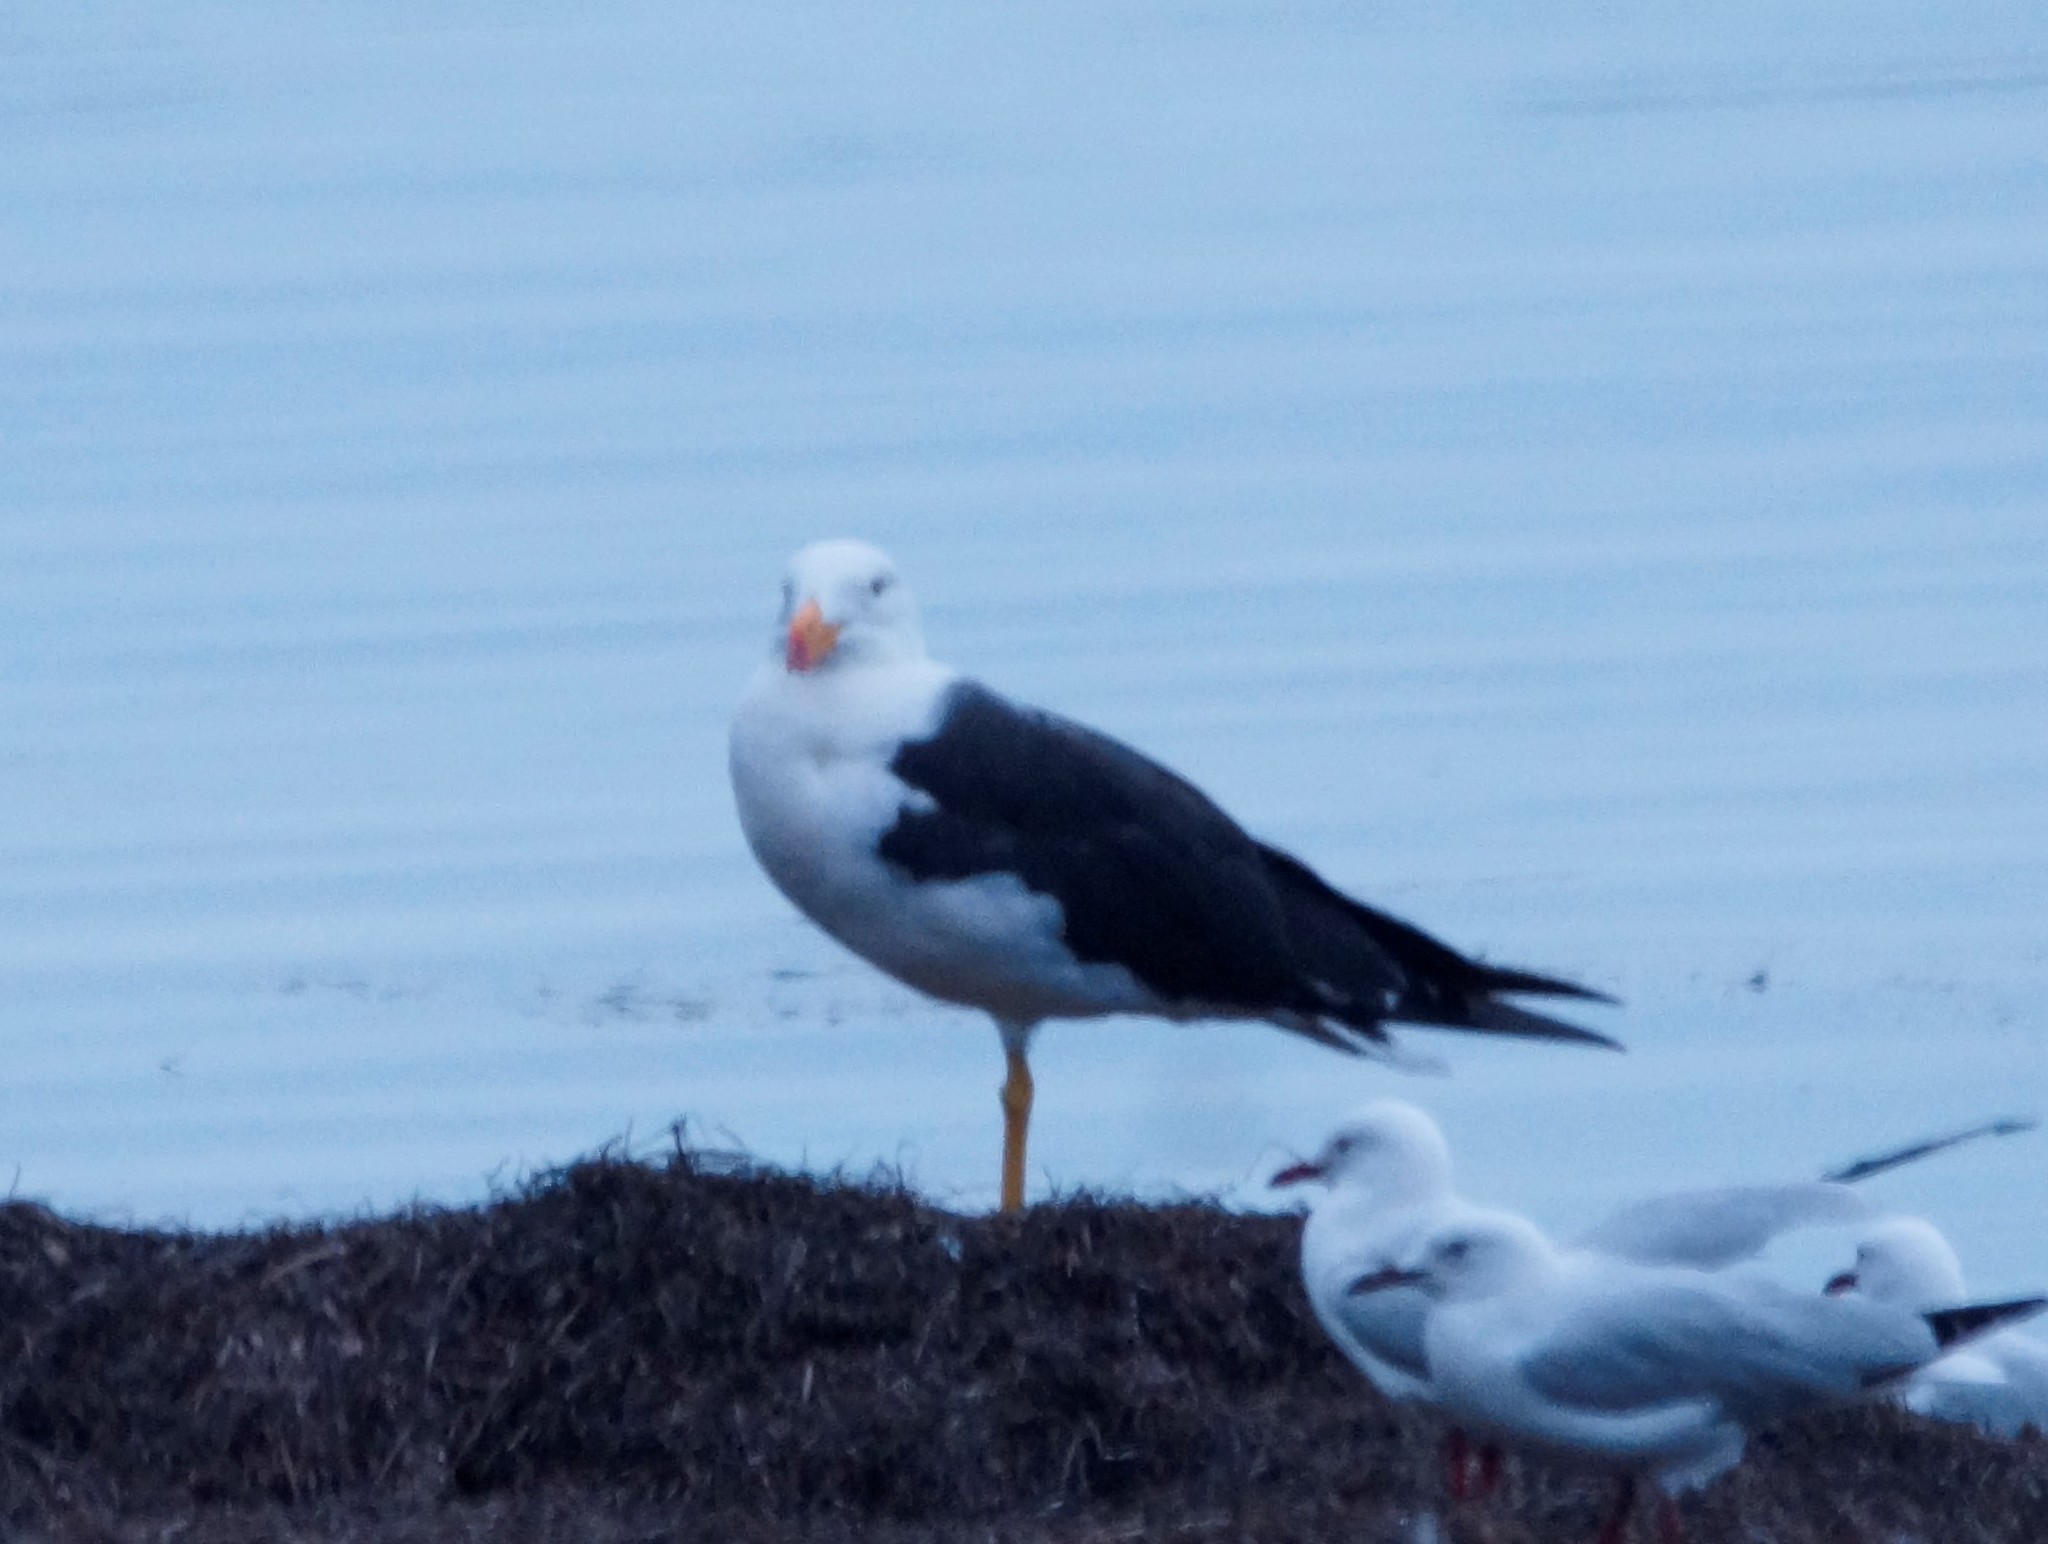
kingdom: Animalia
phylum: Chordata
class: Aves
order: Charadriiformes
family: Laridae
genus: Larus
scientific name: Larus pacificus
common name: Pacific gull
